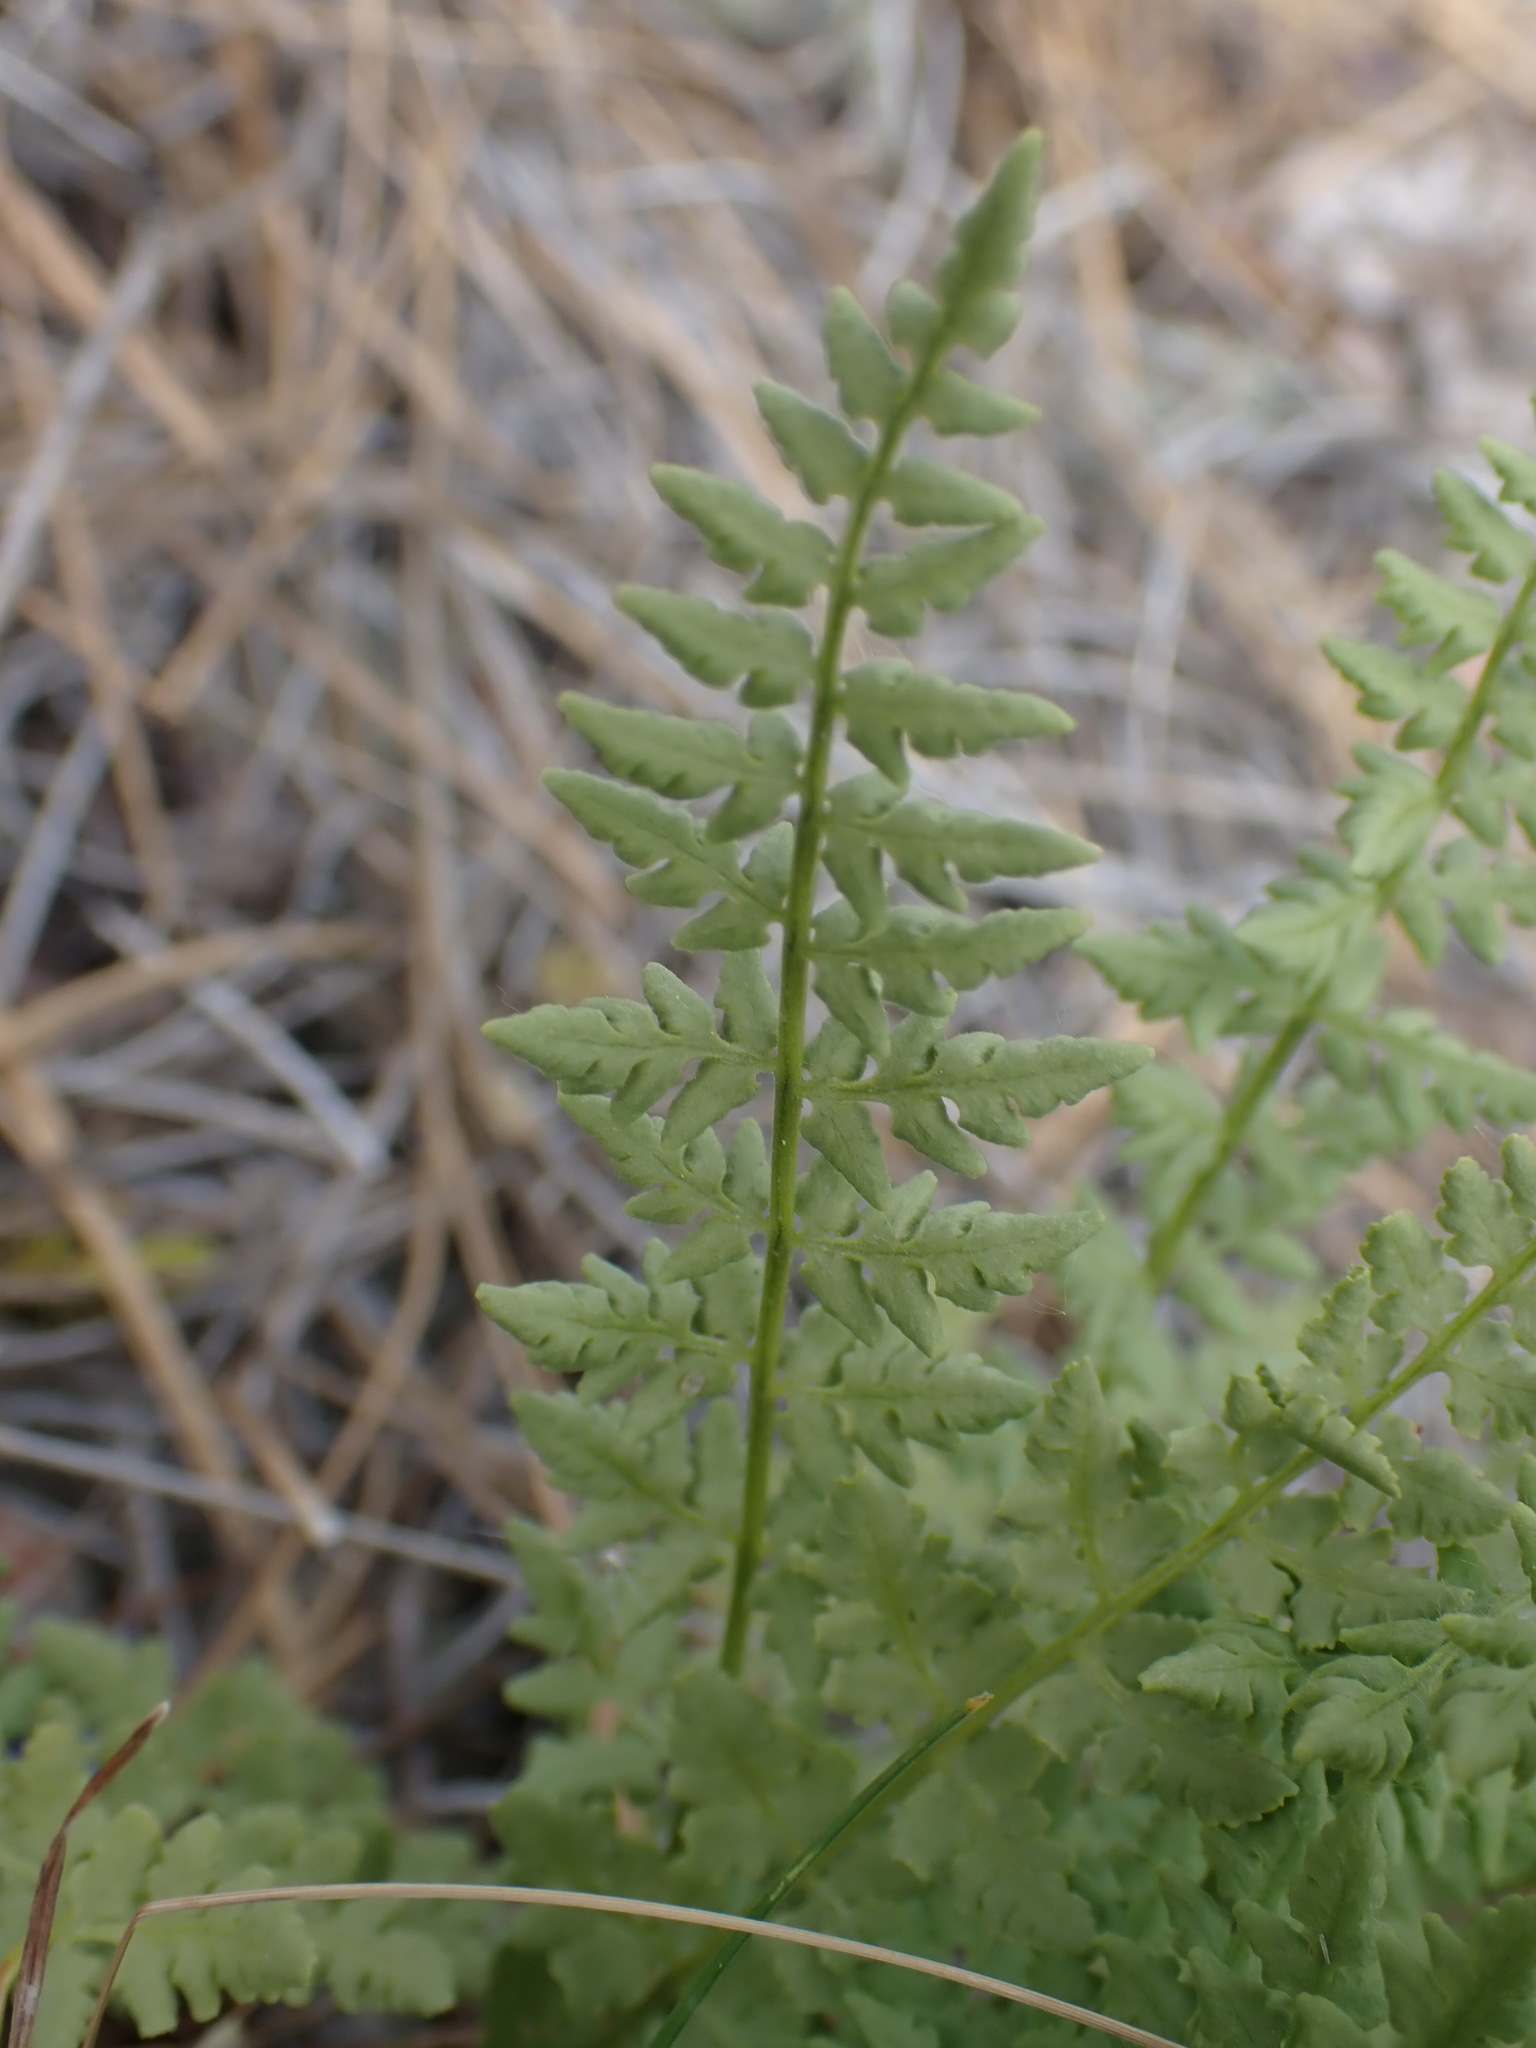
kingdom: Plantae
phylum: Tracheophyta
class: Polypodiopsida
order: Polypodiales
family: Woodsiaceae
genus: Physematium
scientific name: Physematium oreganum
